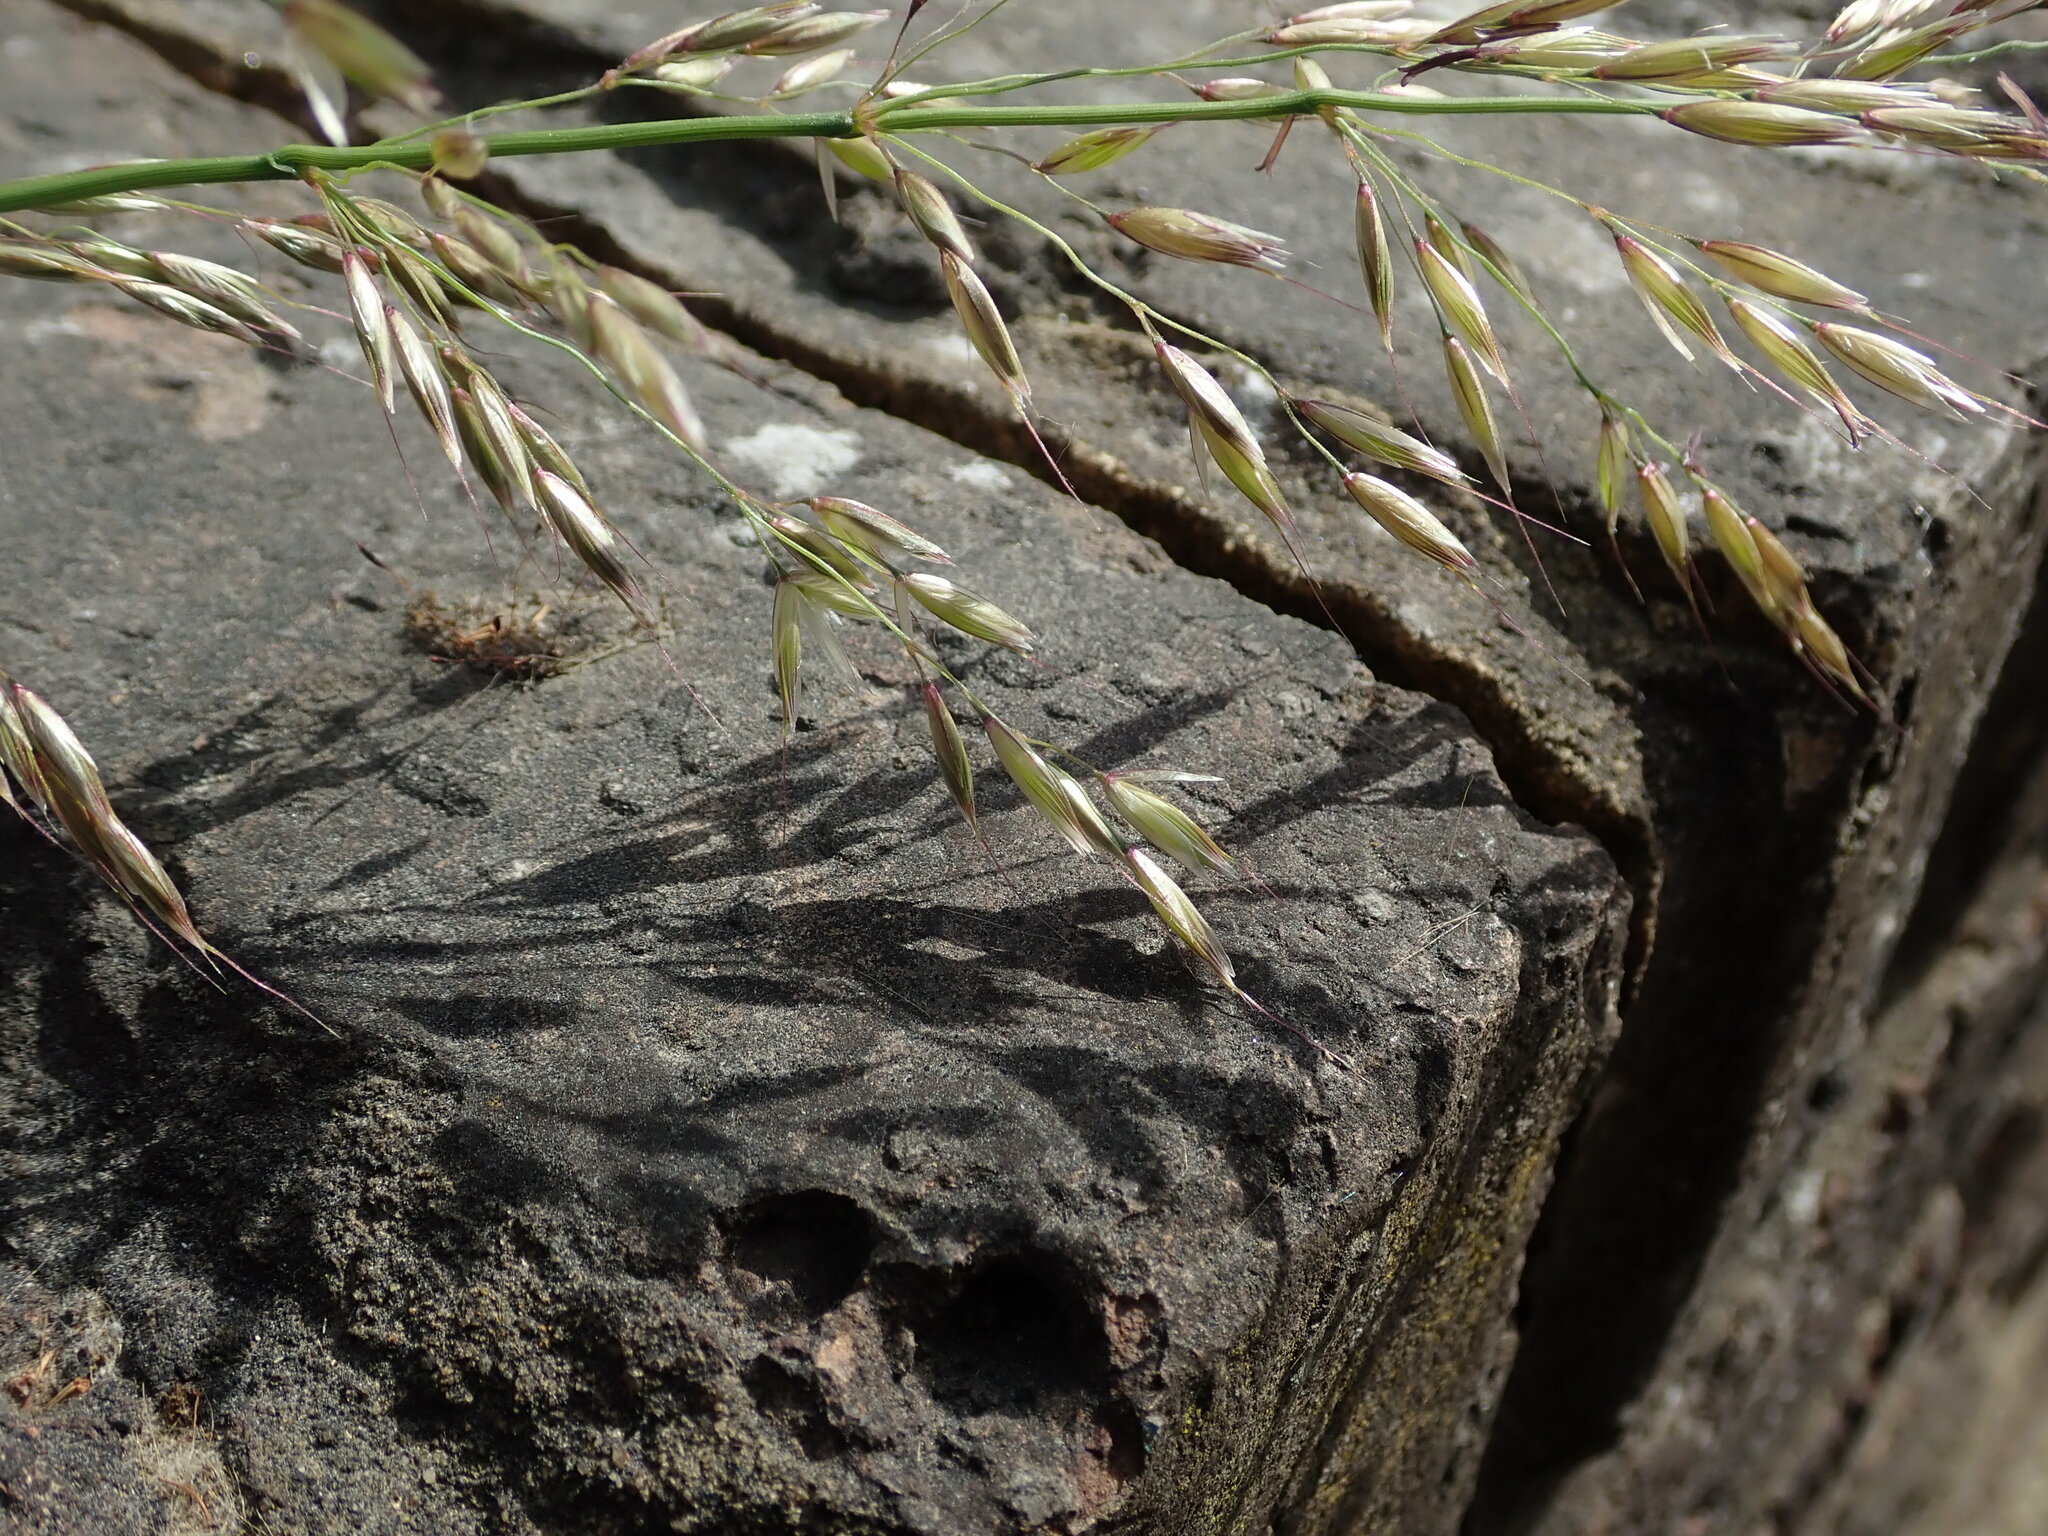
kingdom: Plantae
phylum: Tracheophyta
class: Liliopsida
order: Poales
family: Poaceae
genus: Arrhenatherum
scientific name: Arrhenatherum elatius
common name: Tall oatgrass
